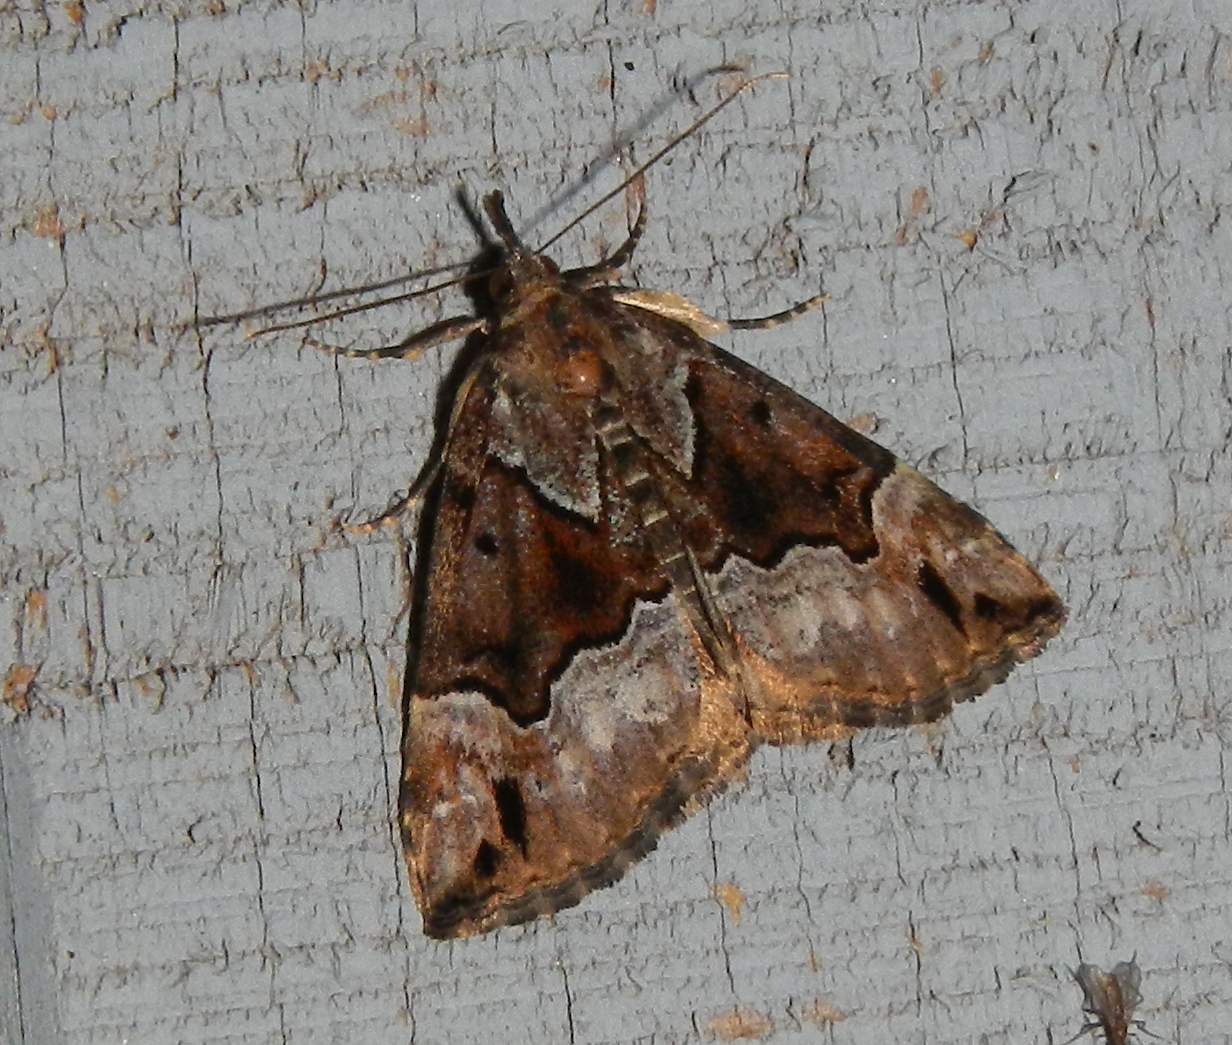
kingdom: Animalia
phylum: Arthropoda
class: Insecta
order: Lepidoptera
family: Erebidae
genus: Hypena
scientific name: Hypena palparia
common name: Mottled bomolocha moth
